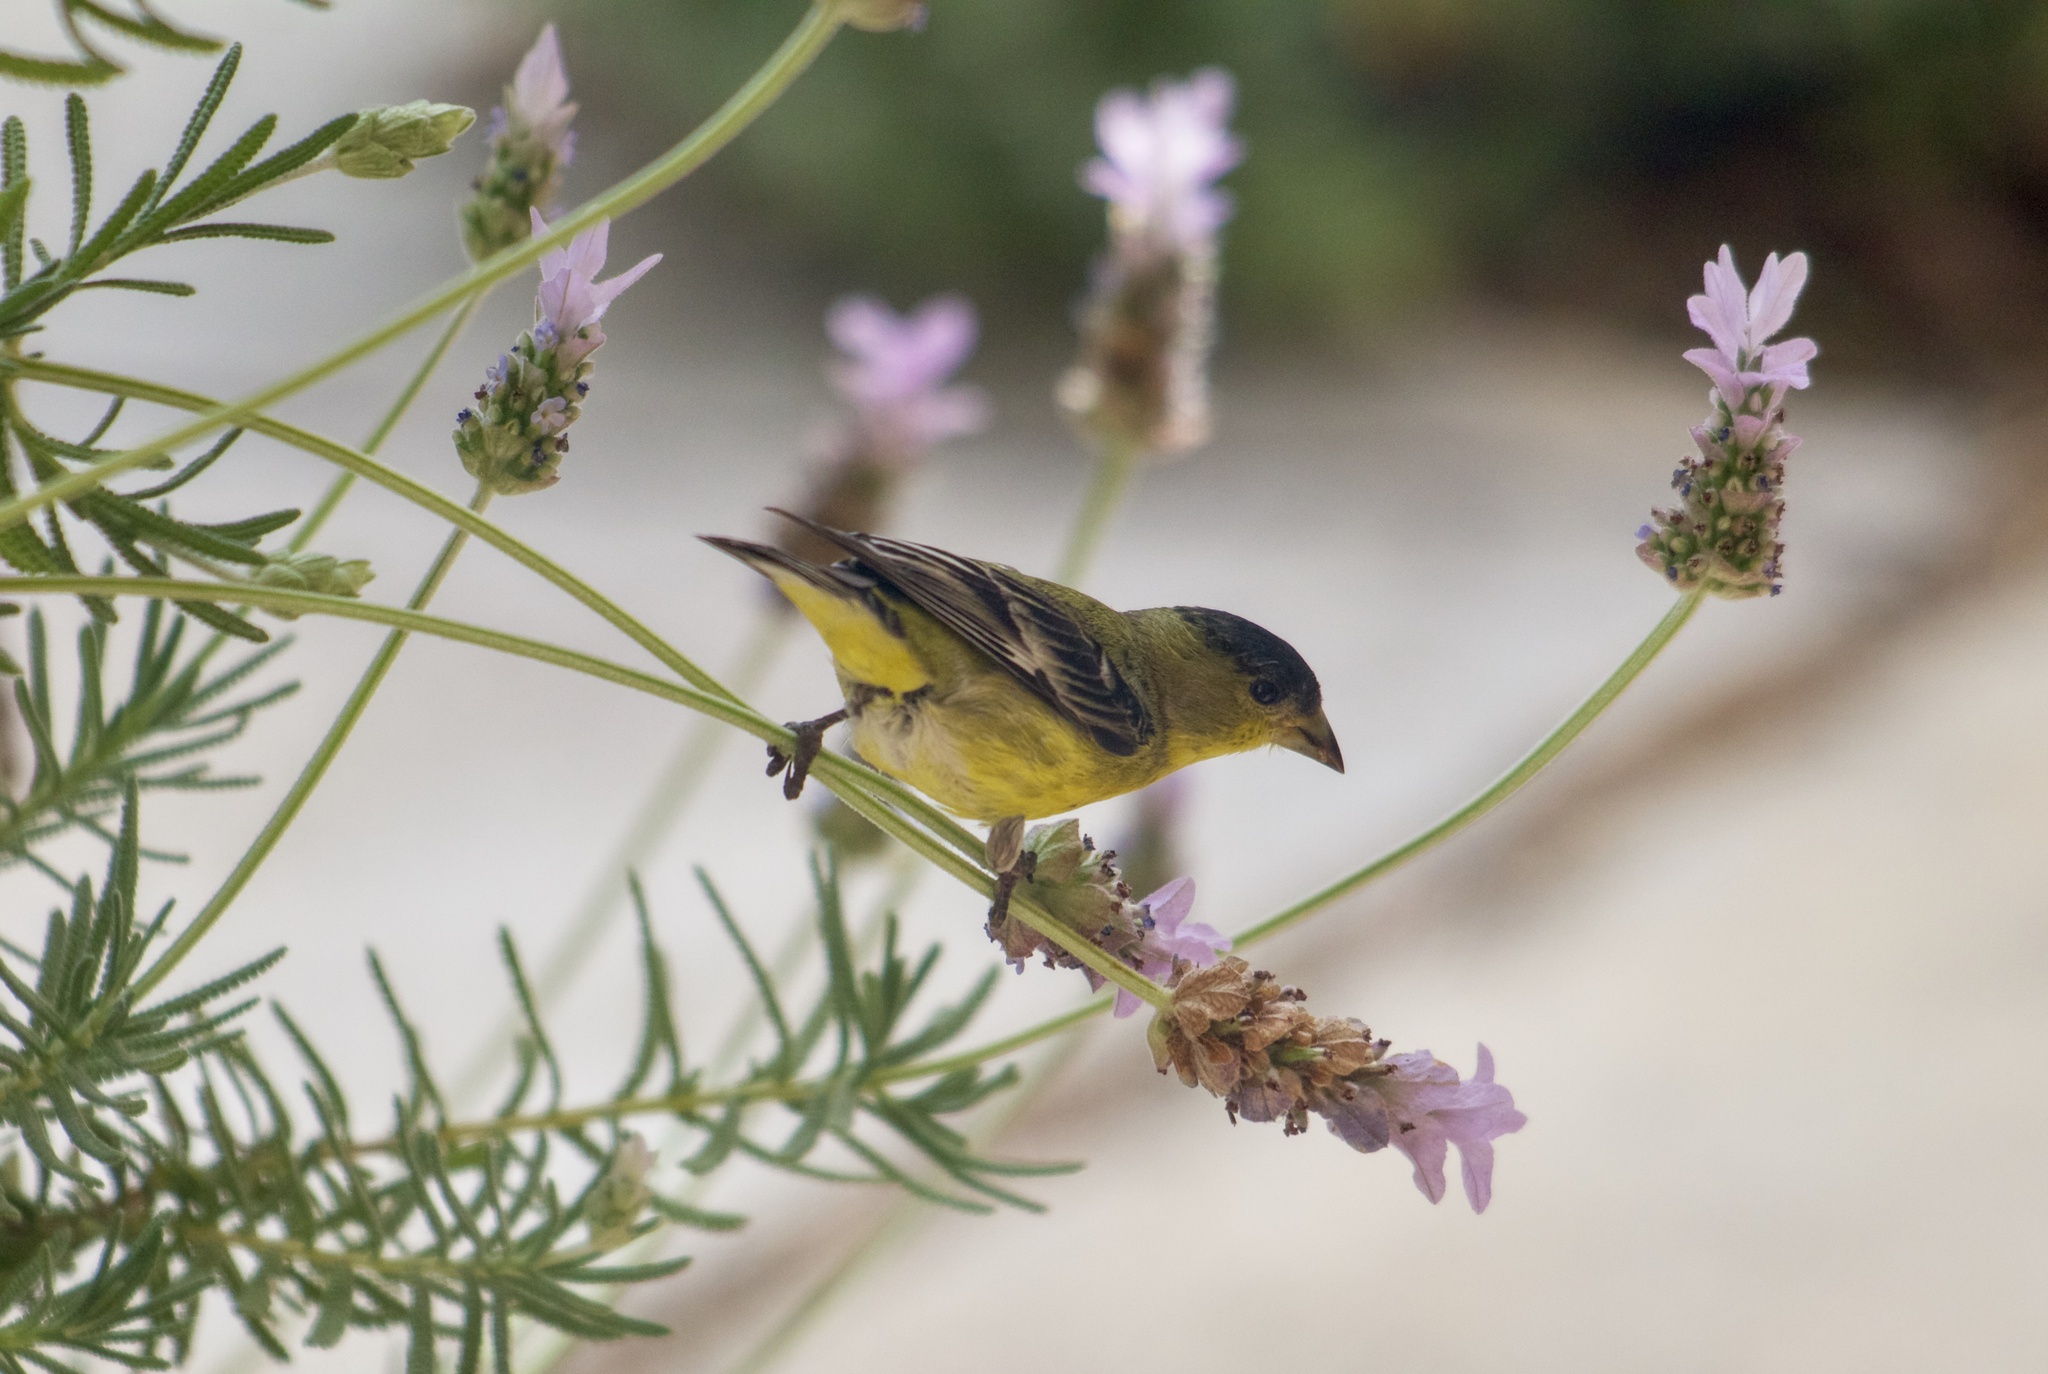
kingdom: Animalia
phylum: Chordata
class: Aves
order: Passeriformes
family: Fringillidae
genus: Spinus
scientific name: Spinus psaltria
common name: Lesser goldfinch
